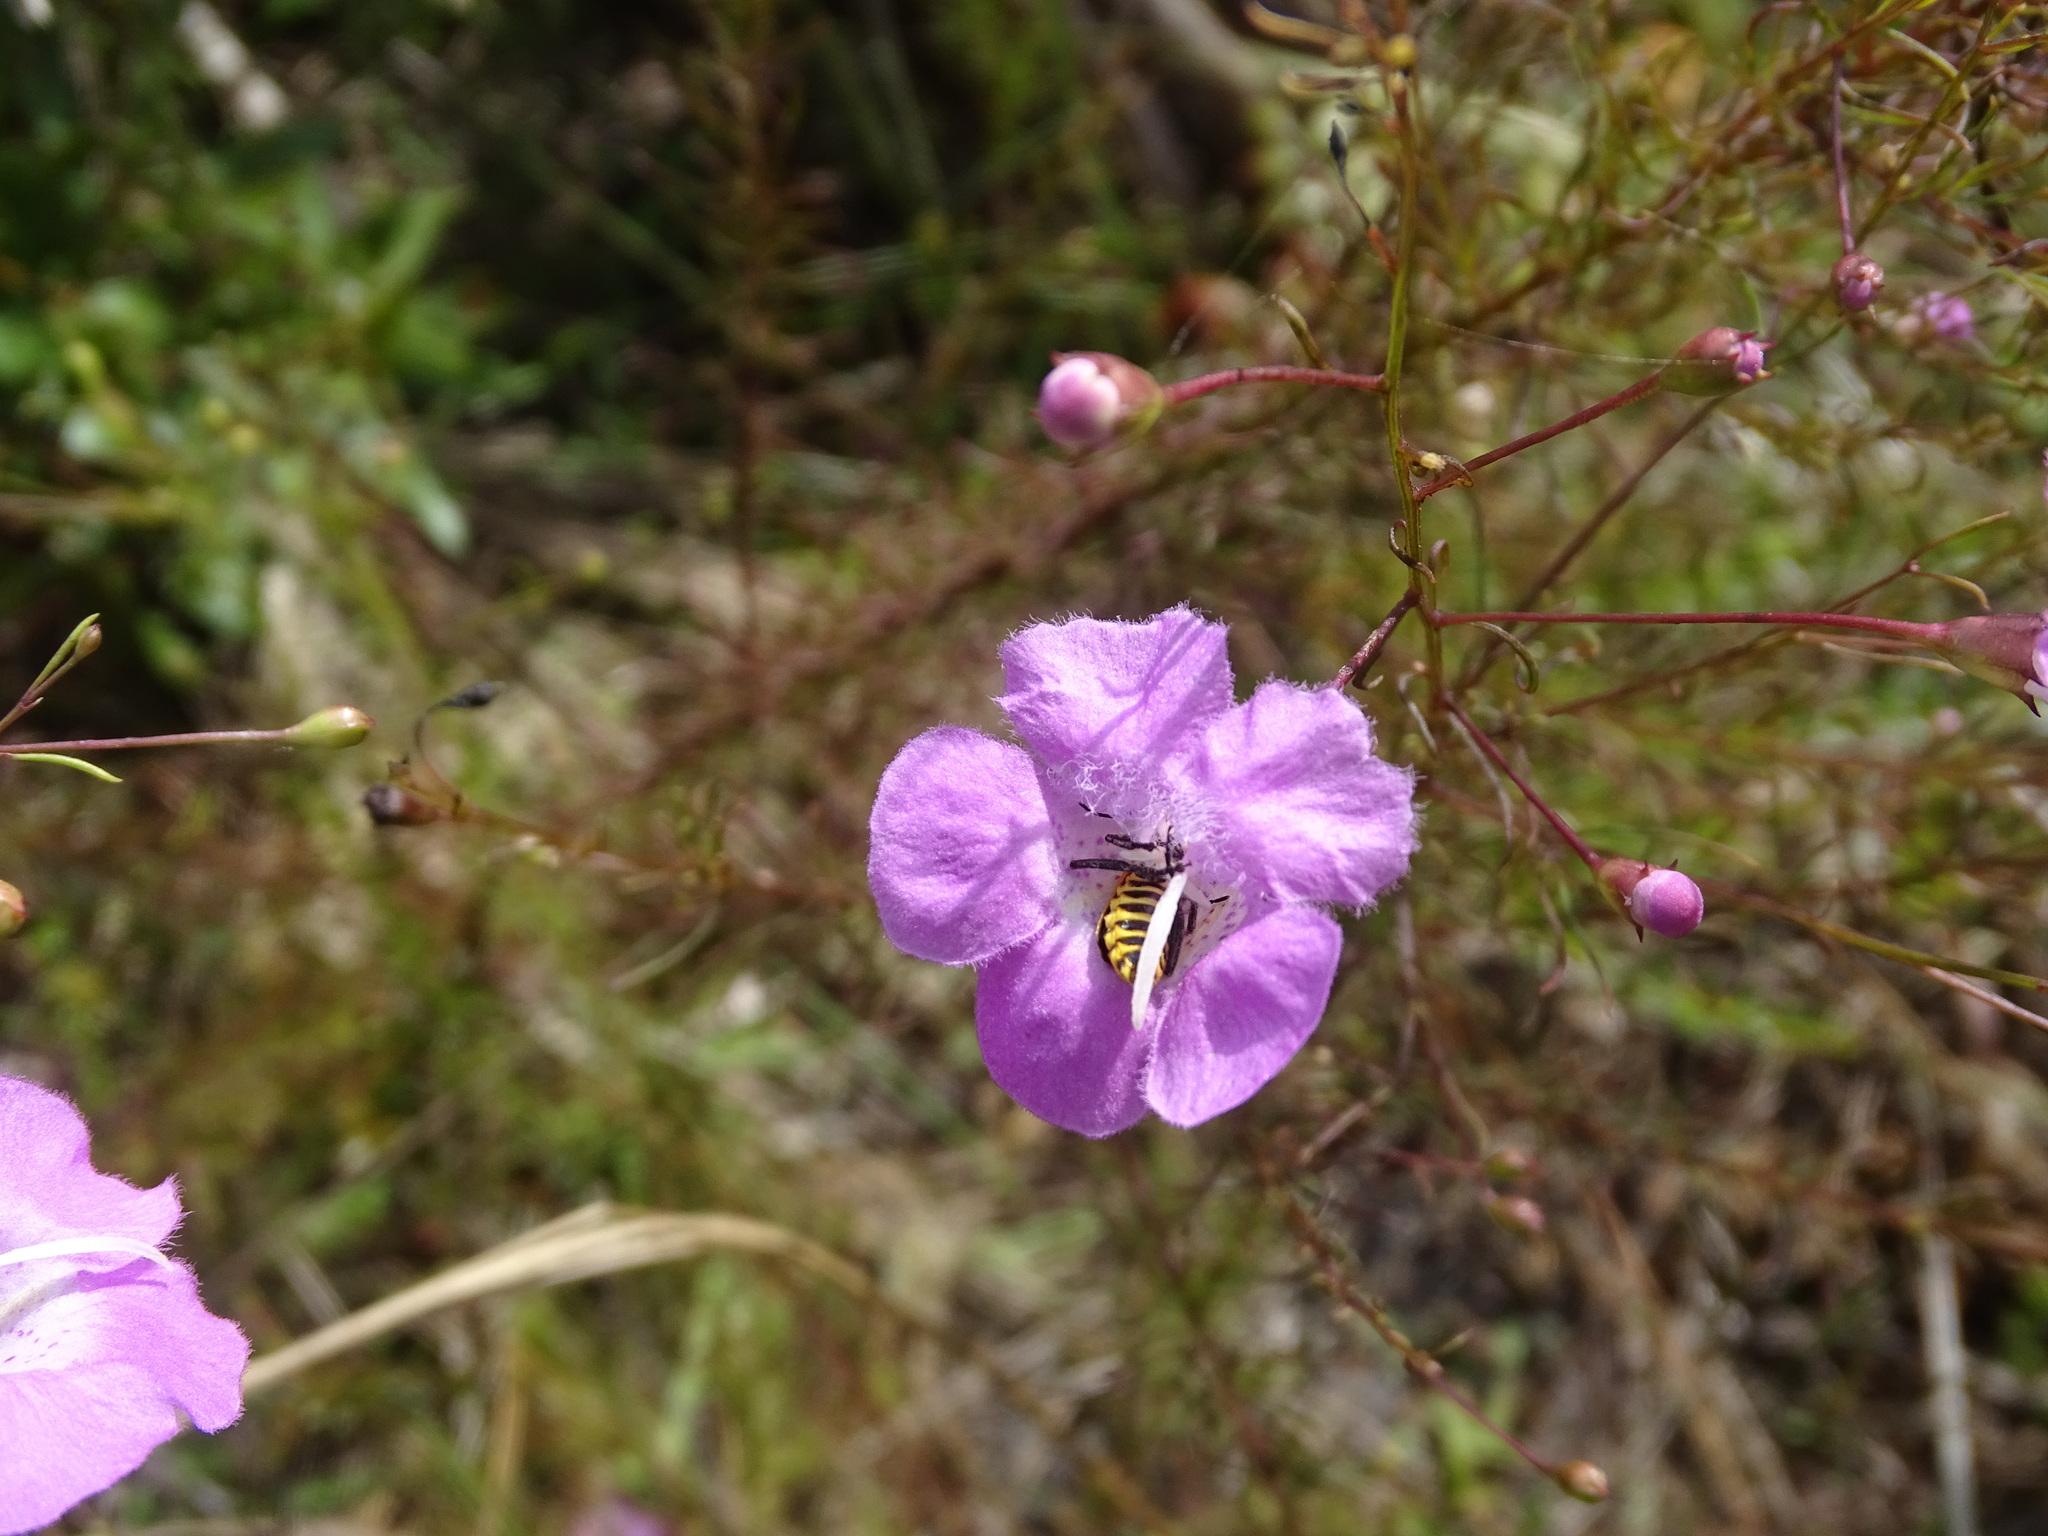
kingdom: Animalia
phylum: Arthropoda
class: Insecta
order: Coleoptera
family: Scarabaeidae
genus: Trigonopeltastes
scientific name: Trigonopeltastes delta
